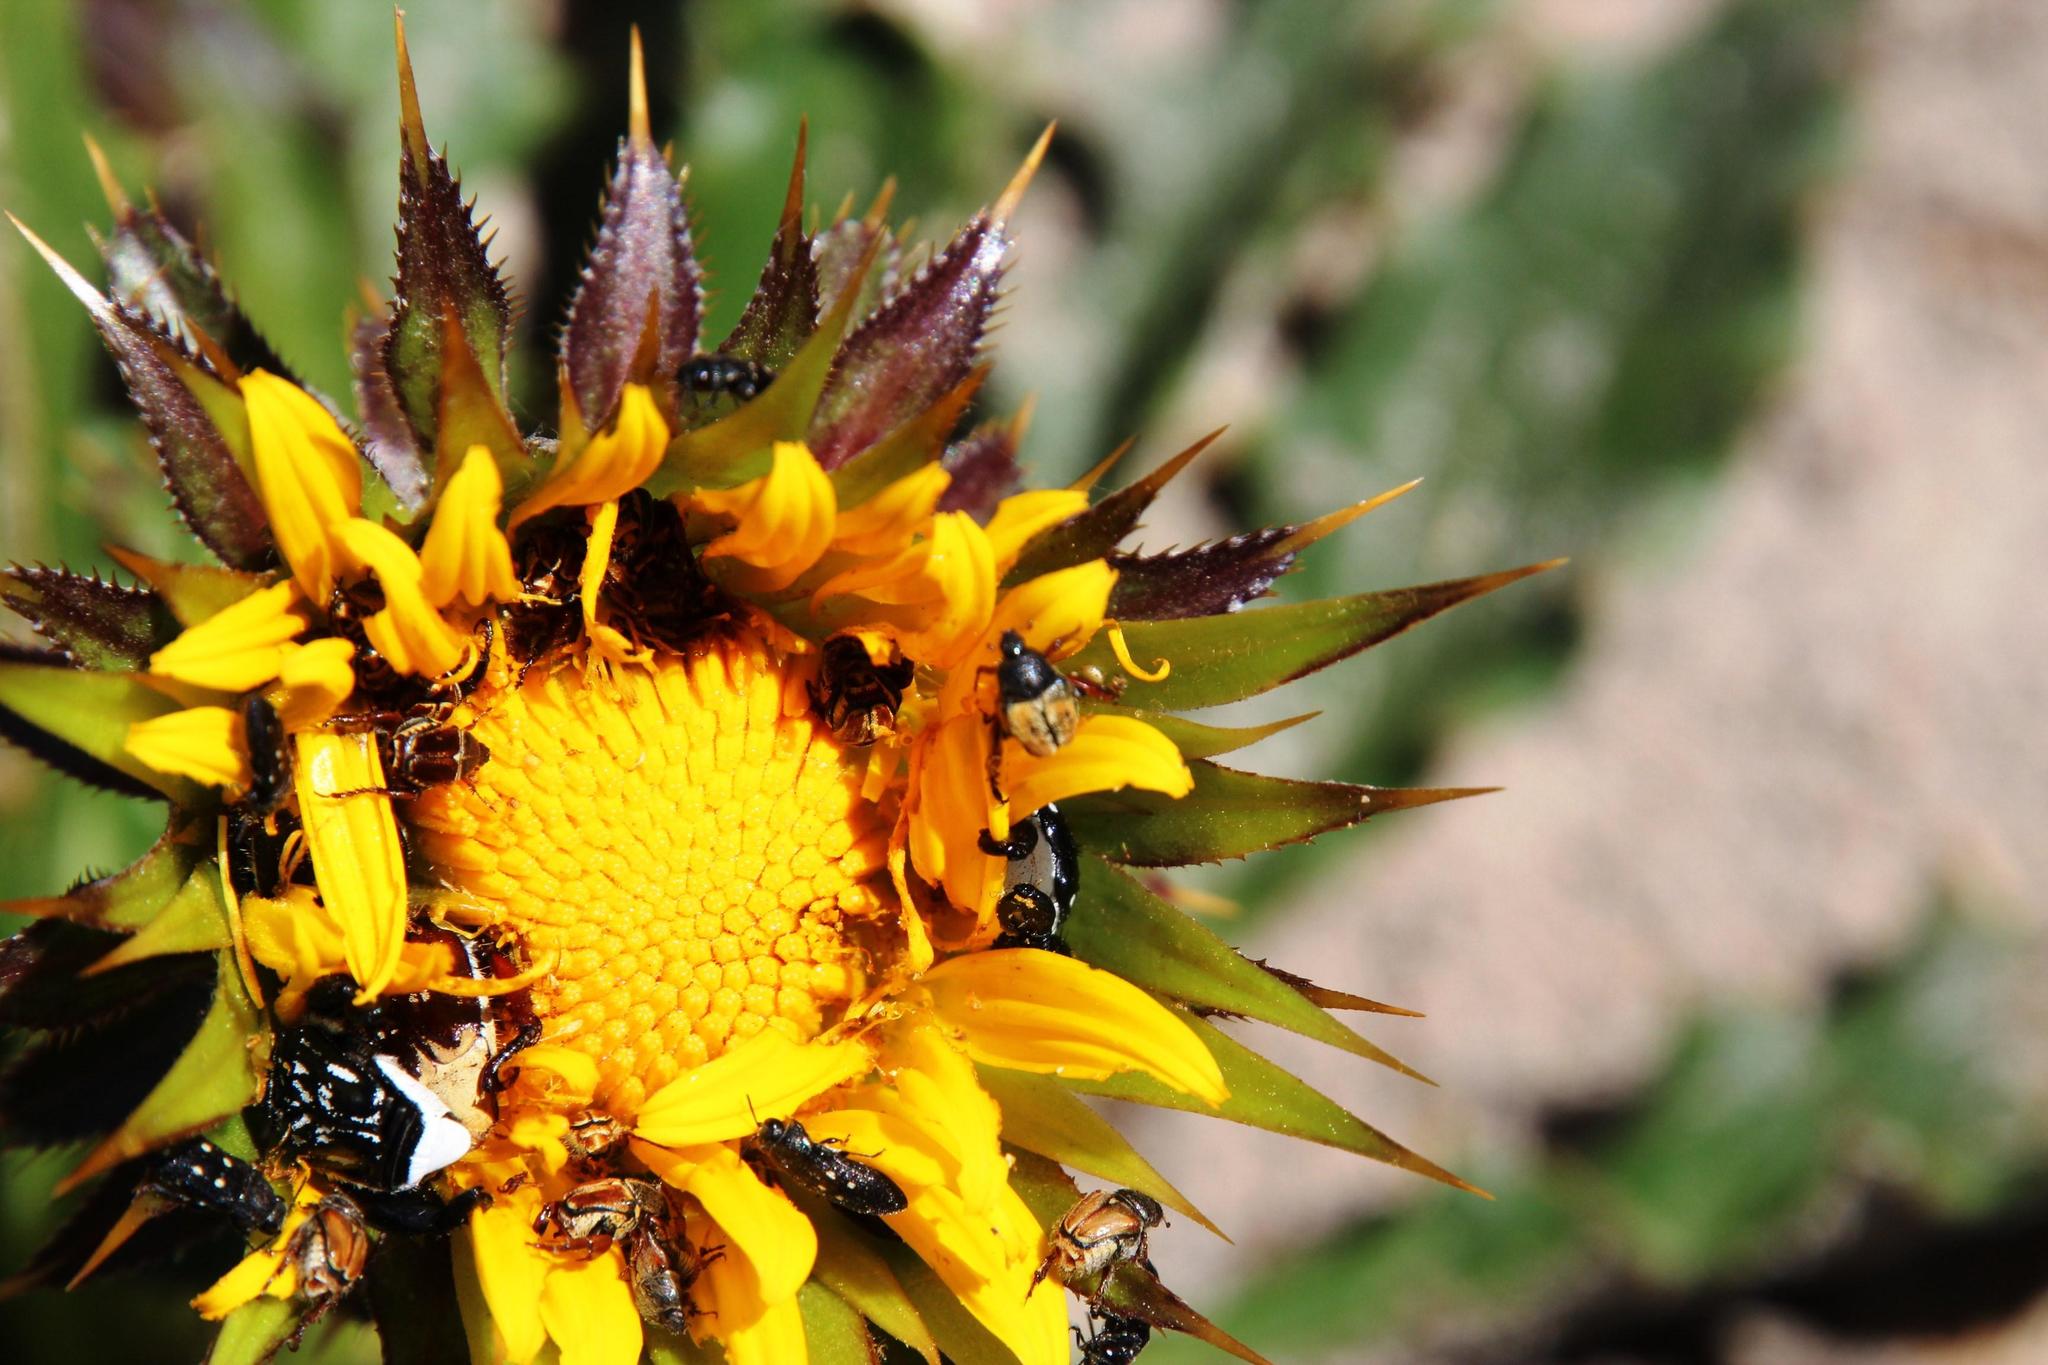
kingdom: Plantae
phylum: Tracheophyta
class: Magnoliopsida
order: Asterales
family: Asteraceae
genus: Berkheya
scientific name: Berkheya armata
